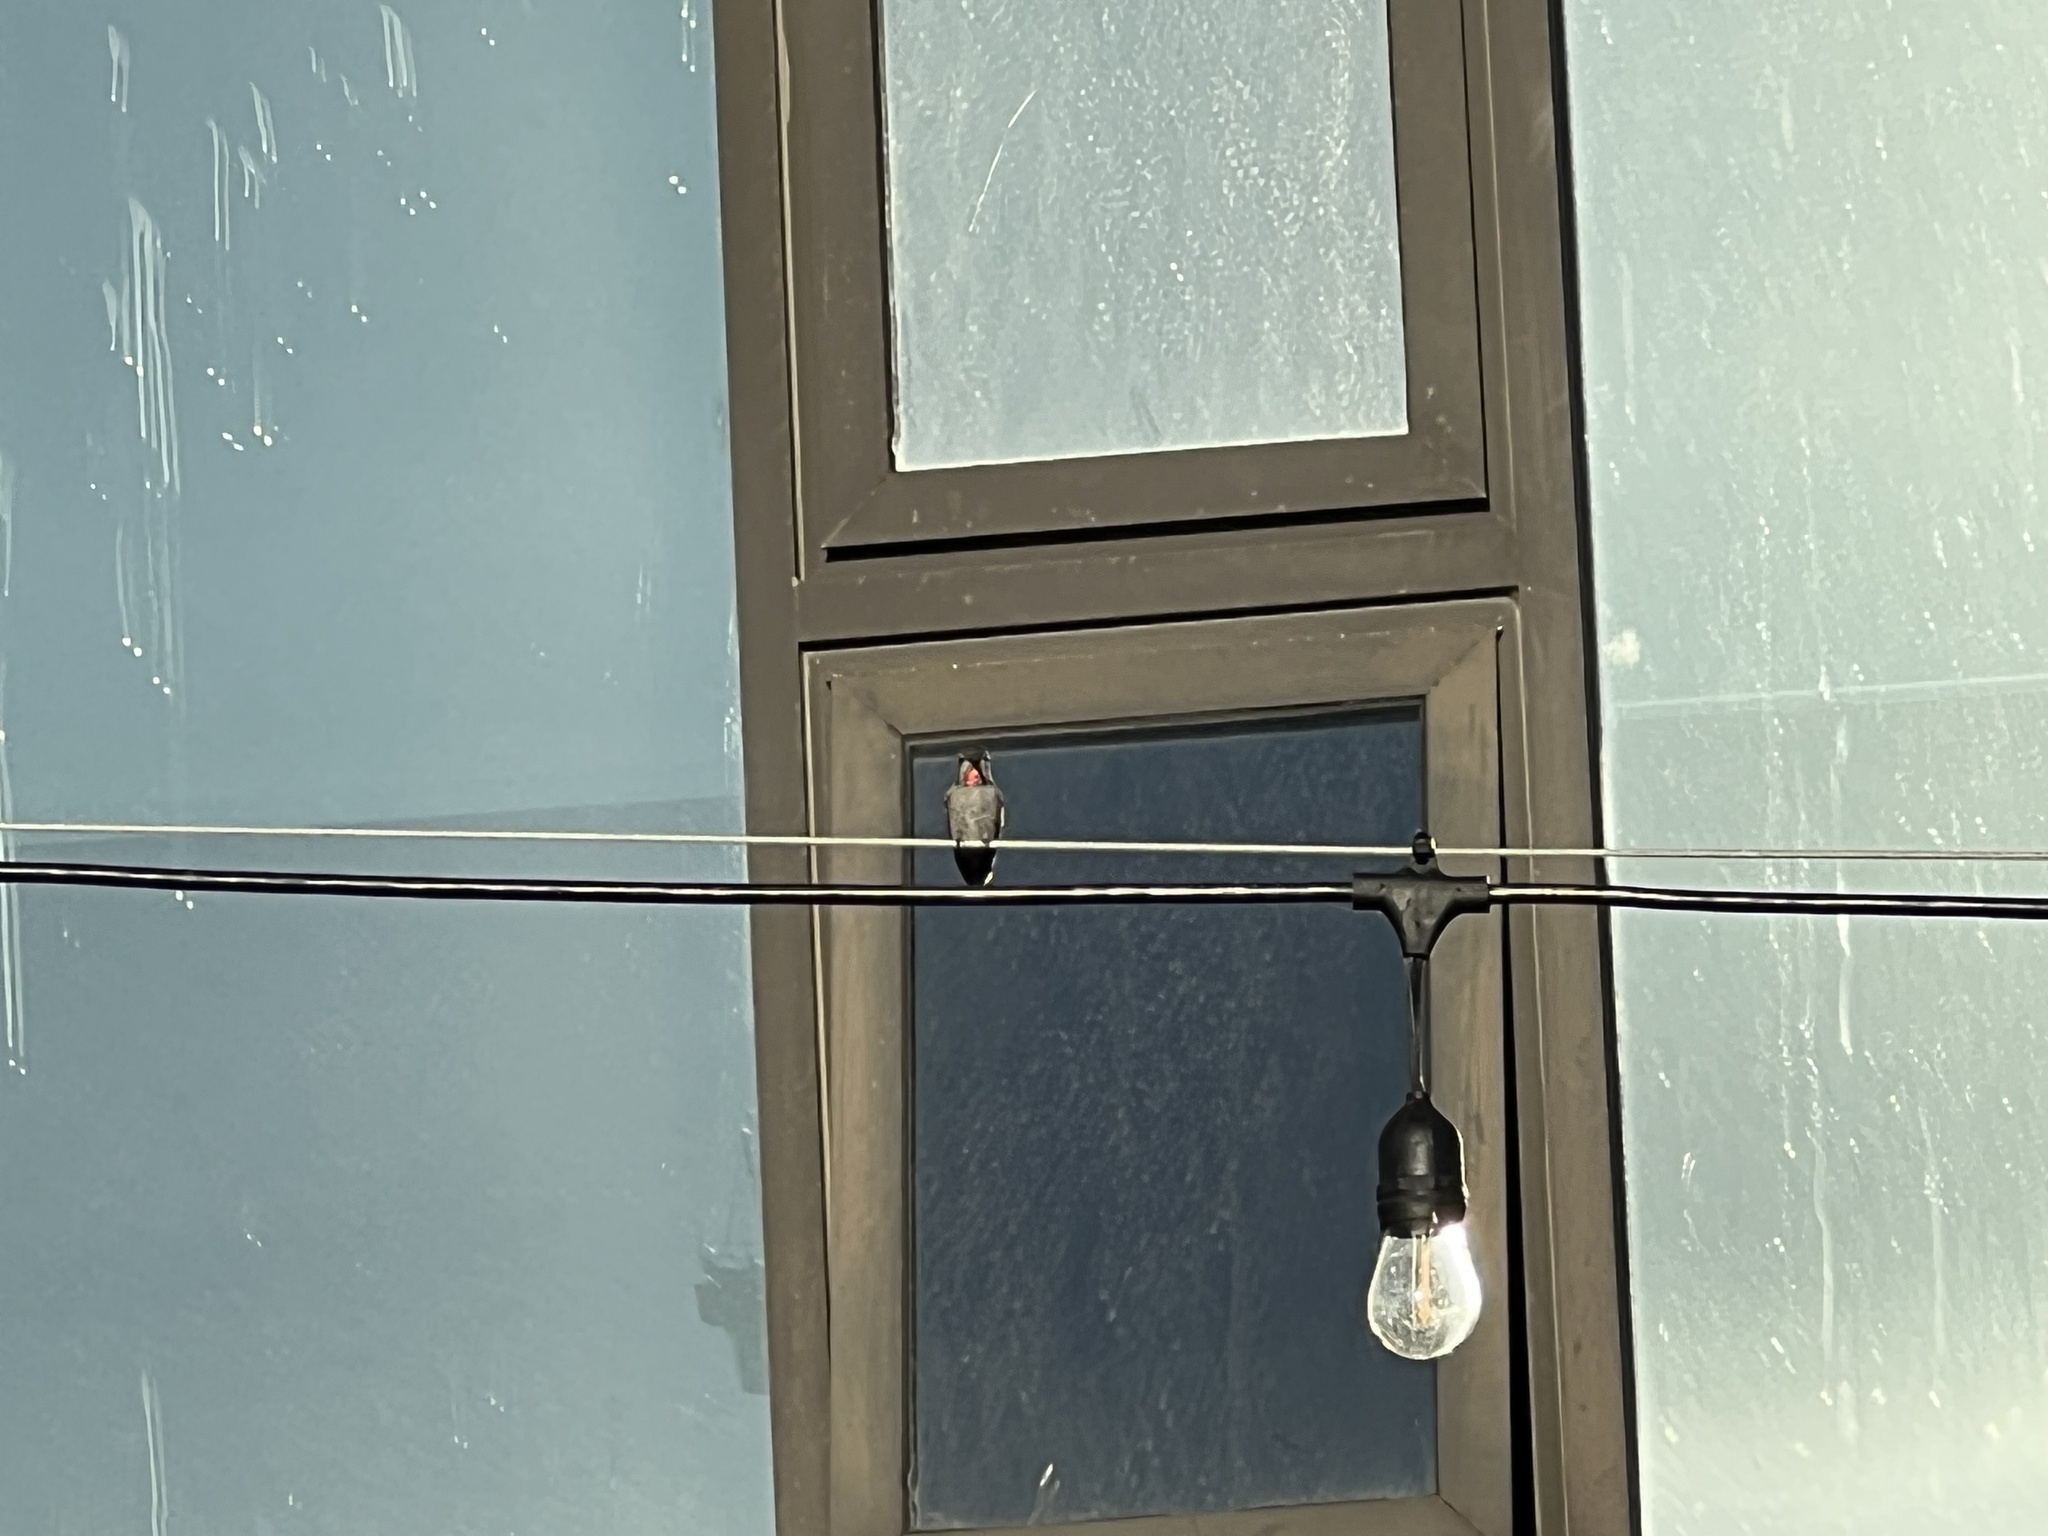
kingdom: Animalia
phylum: Chordata
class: Aves
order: Apodiformes
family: Trochilidae
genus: Calypte
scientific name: Calypte anna
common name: Anna's hummingbird
